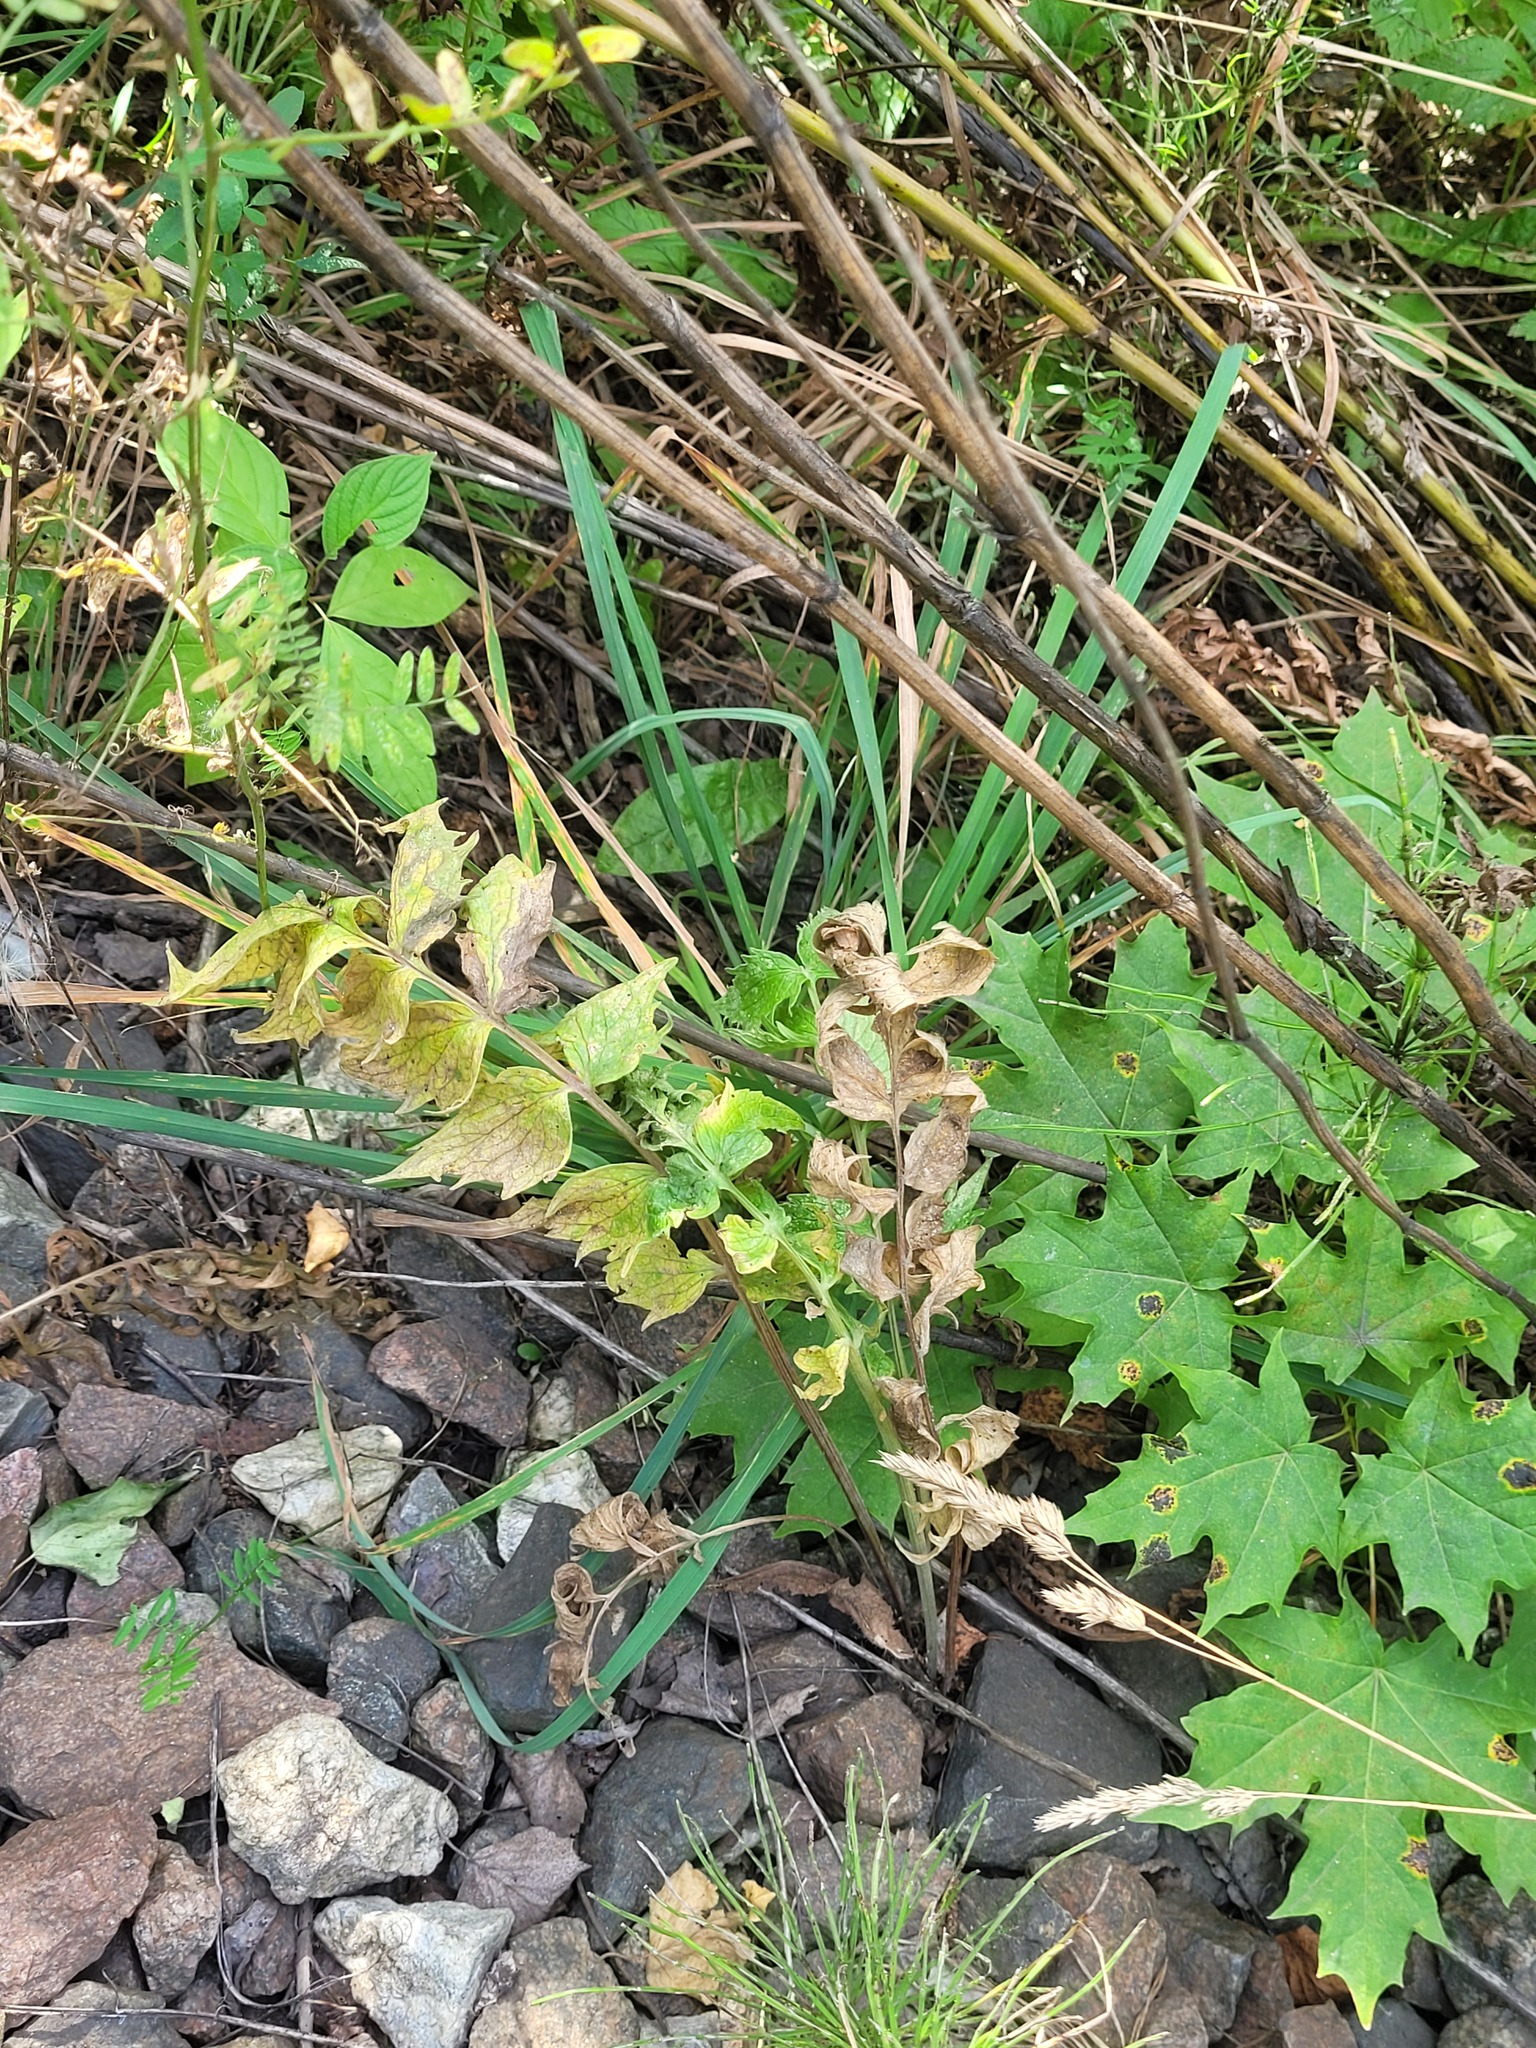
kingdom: Plantae
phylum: Tracheophyta
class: Magnoliopsida
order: Dipsacales
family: Caprifoliaceae
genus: Valeriana
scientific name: Valeriana officinalis
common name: Common valerian
